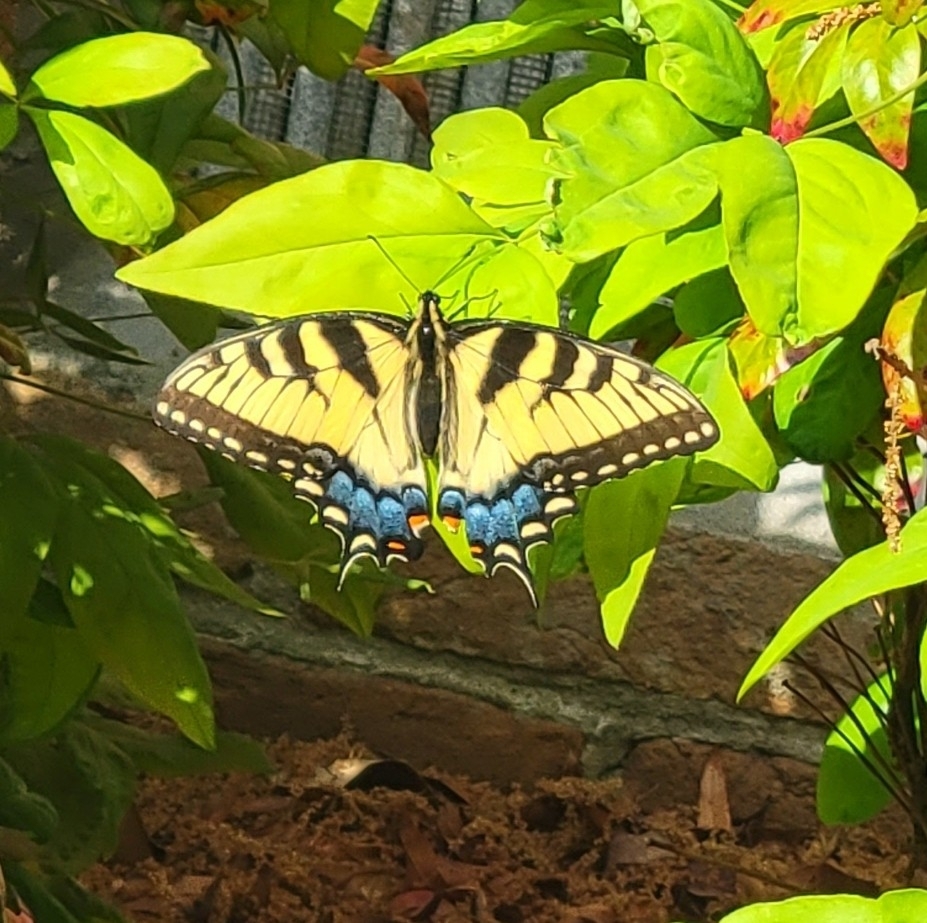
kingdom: Animalia
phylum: Arthropoda
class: Insecta
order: Lepidoptera
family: Papilionidae
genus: Papilio
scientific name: Papilio glaucus
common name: Tiger swallowtail
